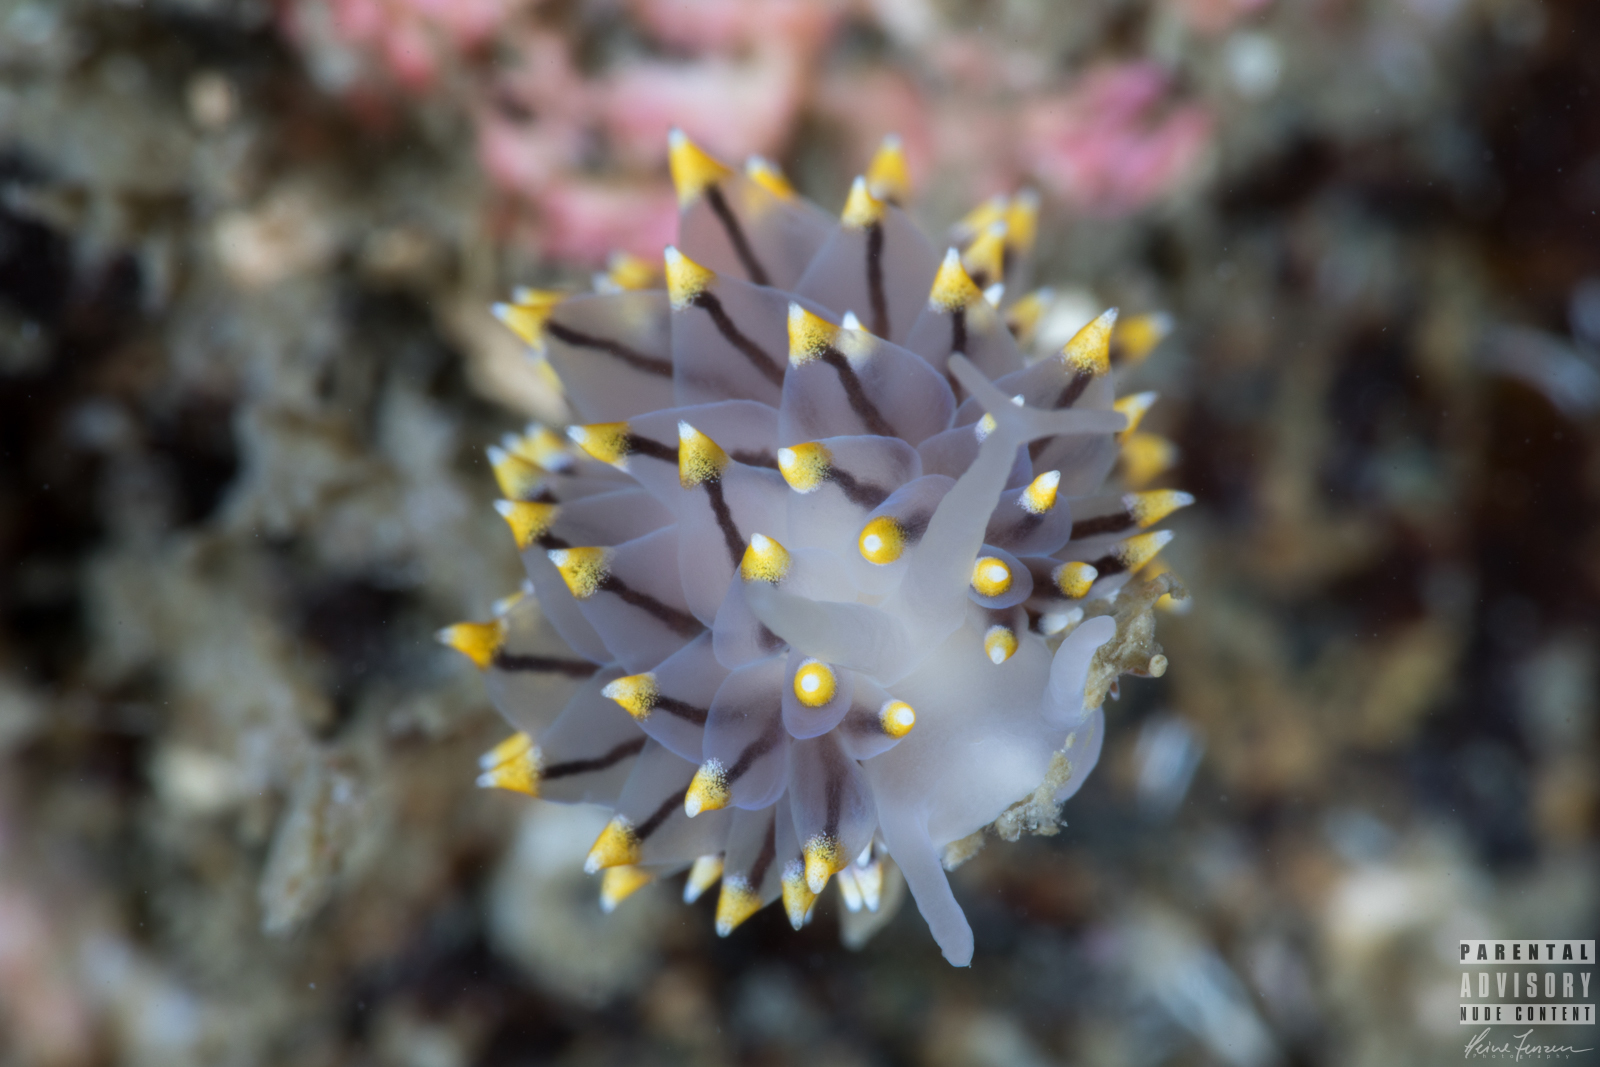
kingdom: Animalia
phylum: Mollusca
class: Gastropoda
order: Nudibranchia
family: Eubranchidae
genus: Eubranchus
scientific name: Eubranchus tricolor
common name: Painted balloon aeolis
